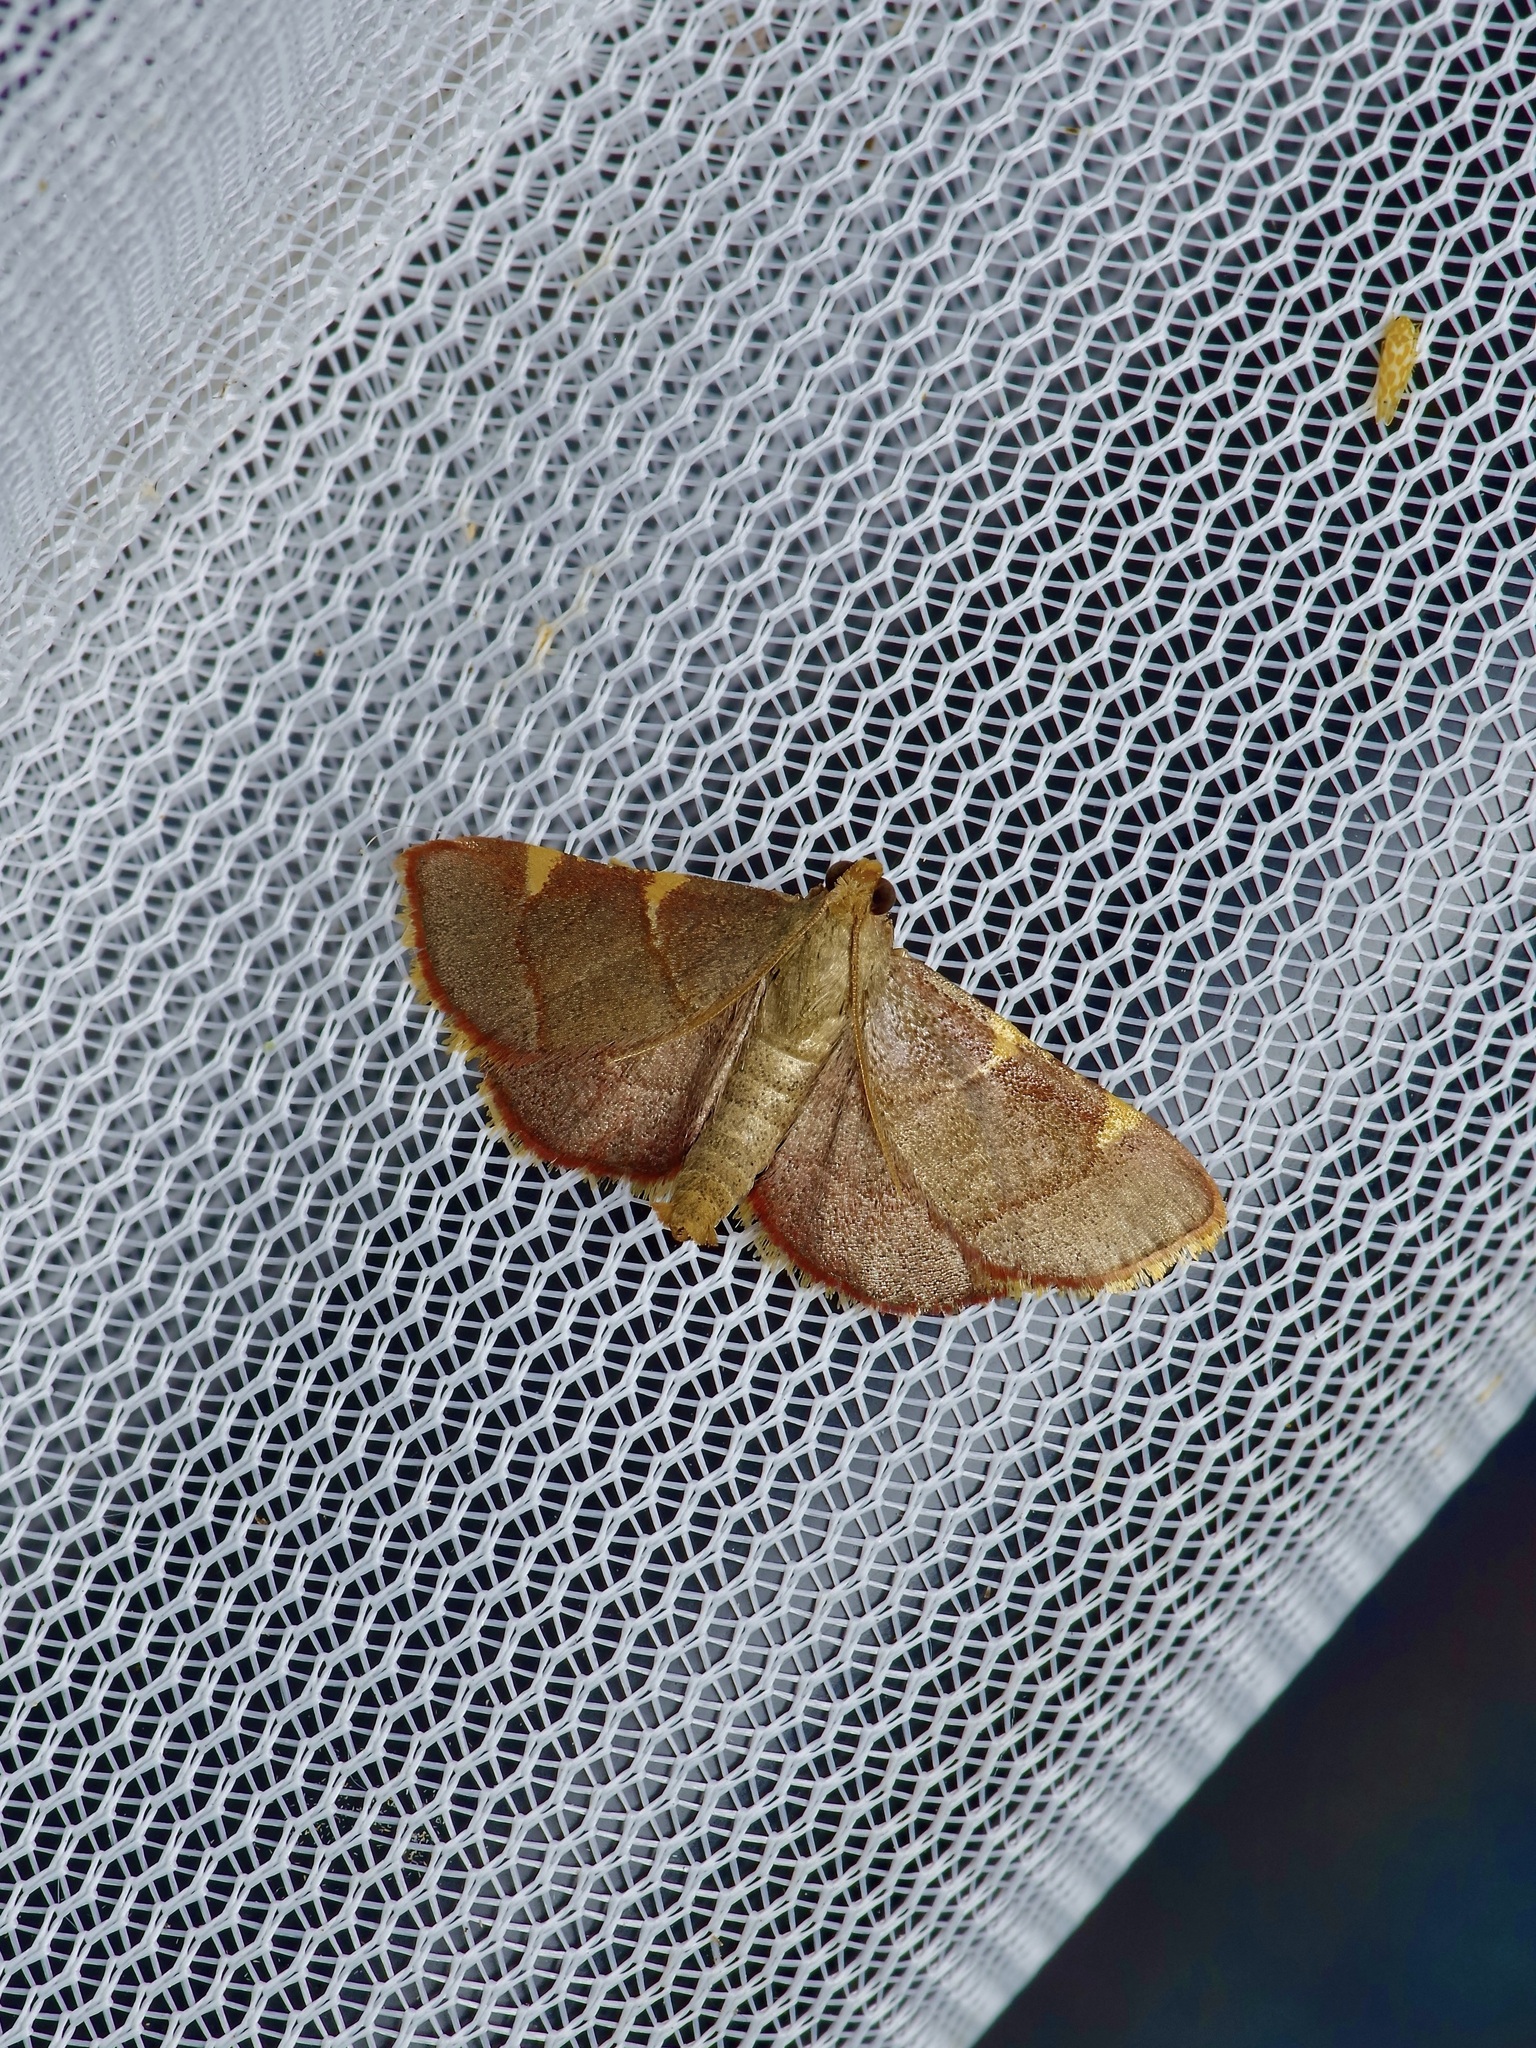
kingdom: Animalia
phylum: Arthropoda
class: Insecta
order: Lepidoptera
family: Pyralidae
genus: Hypsopygia
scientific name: Hypsopygia olinalis
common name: Yellow-fringed dolichomia moth
